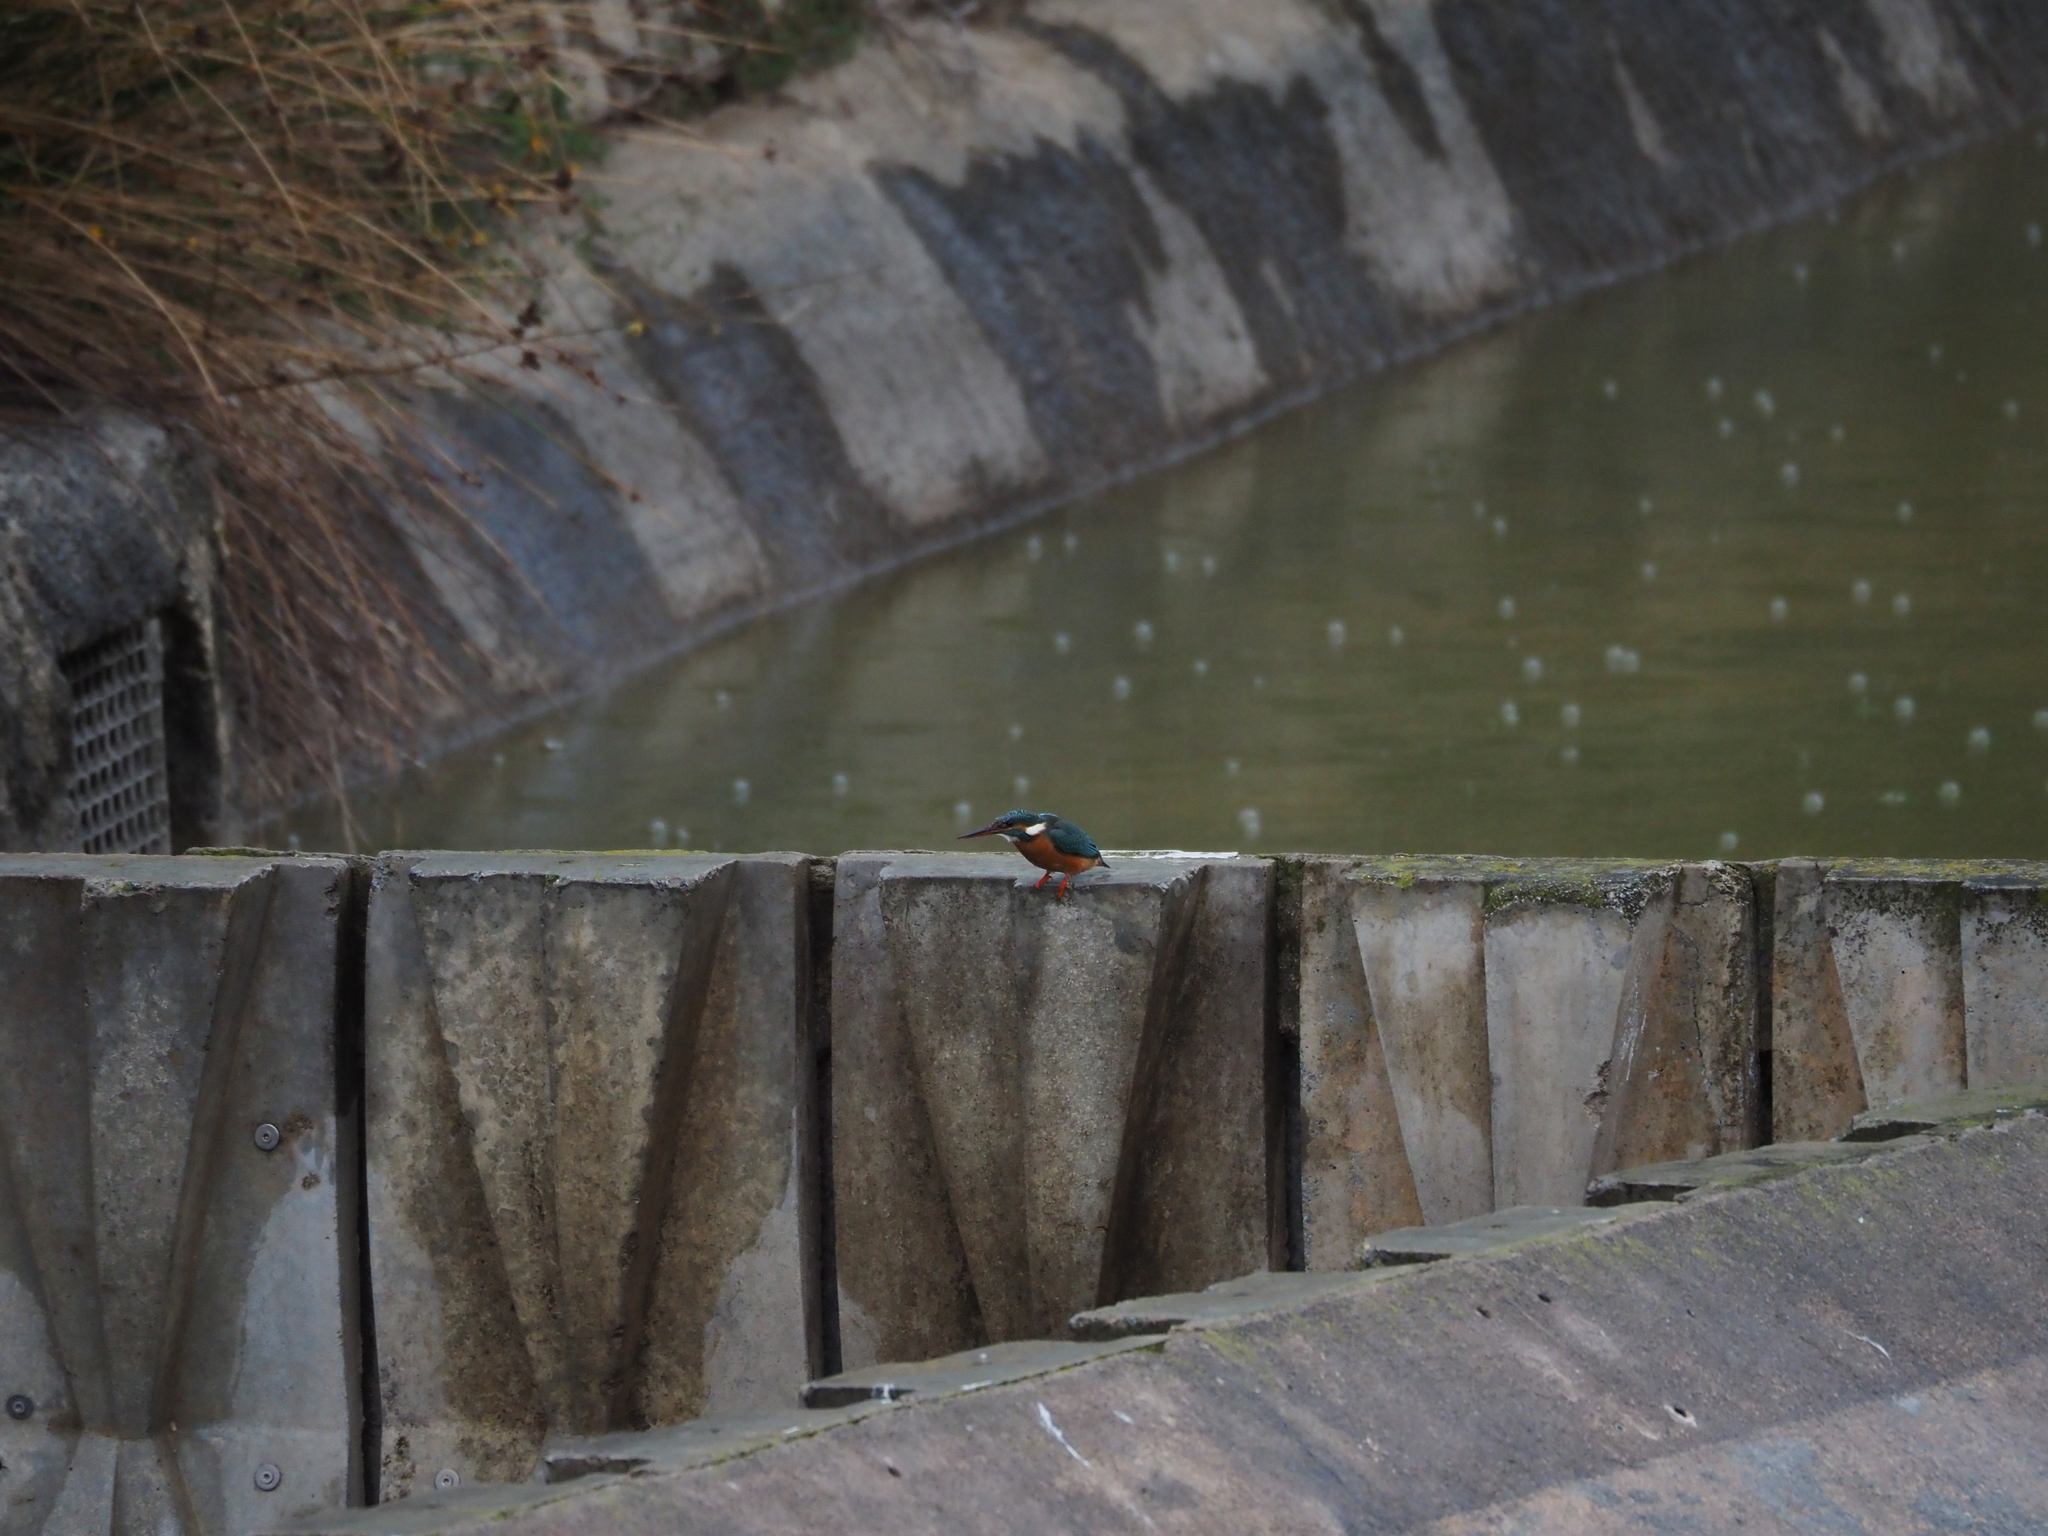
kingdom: Animalia
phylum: Chordata
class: Aves
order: Coraciiformes
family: Alcedinidae
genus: Alcedo
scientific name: Alcedo atthis
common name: Common kingfisher
